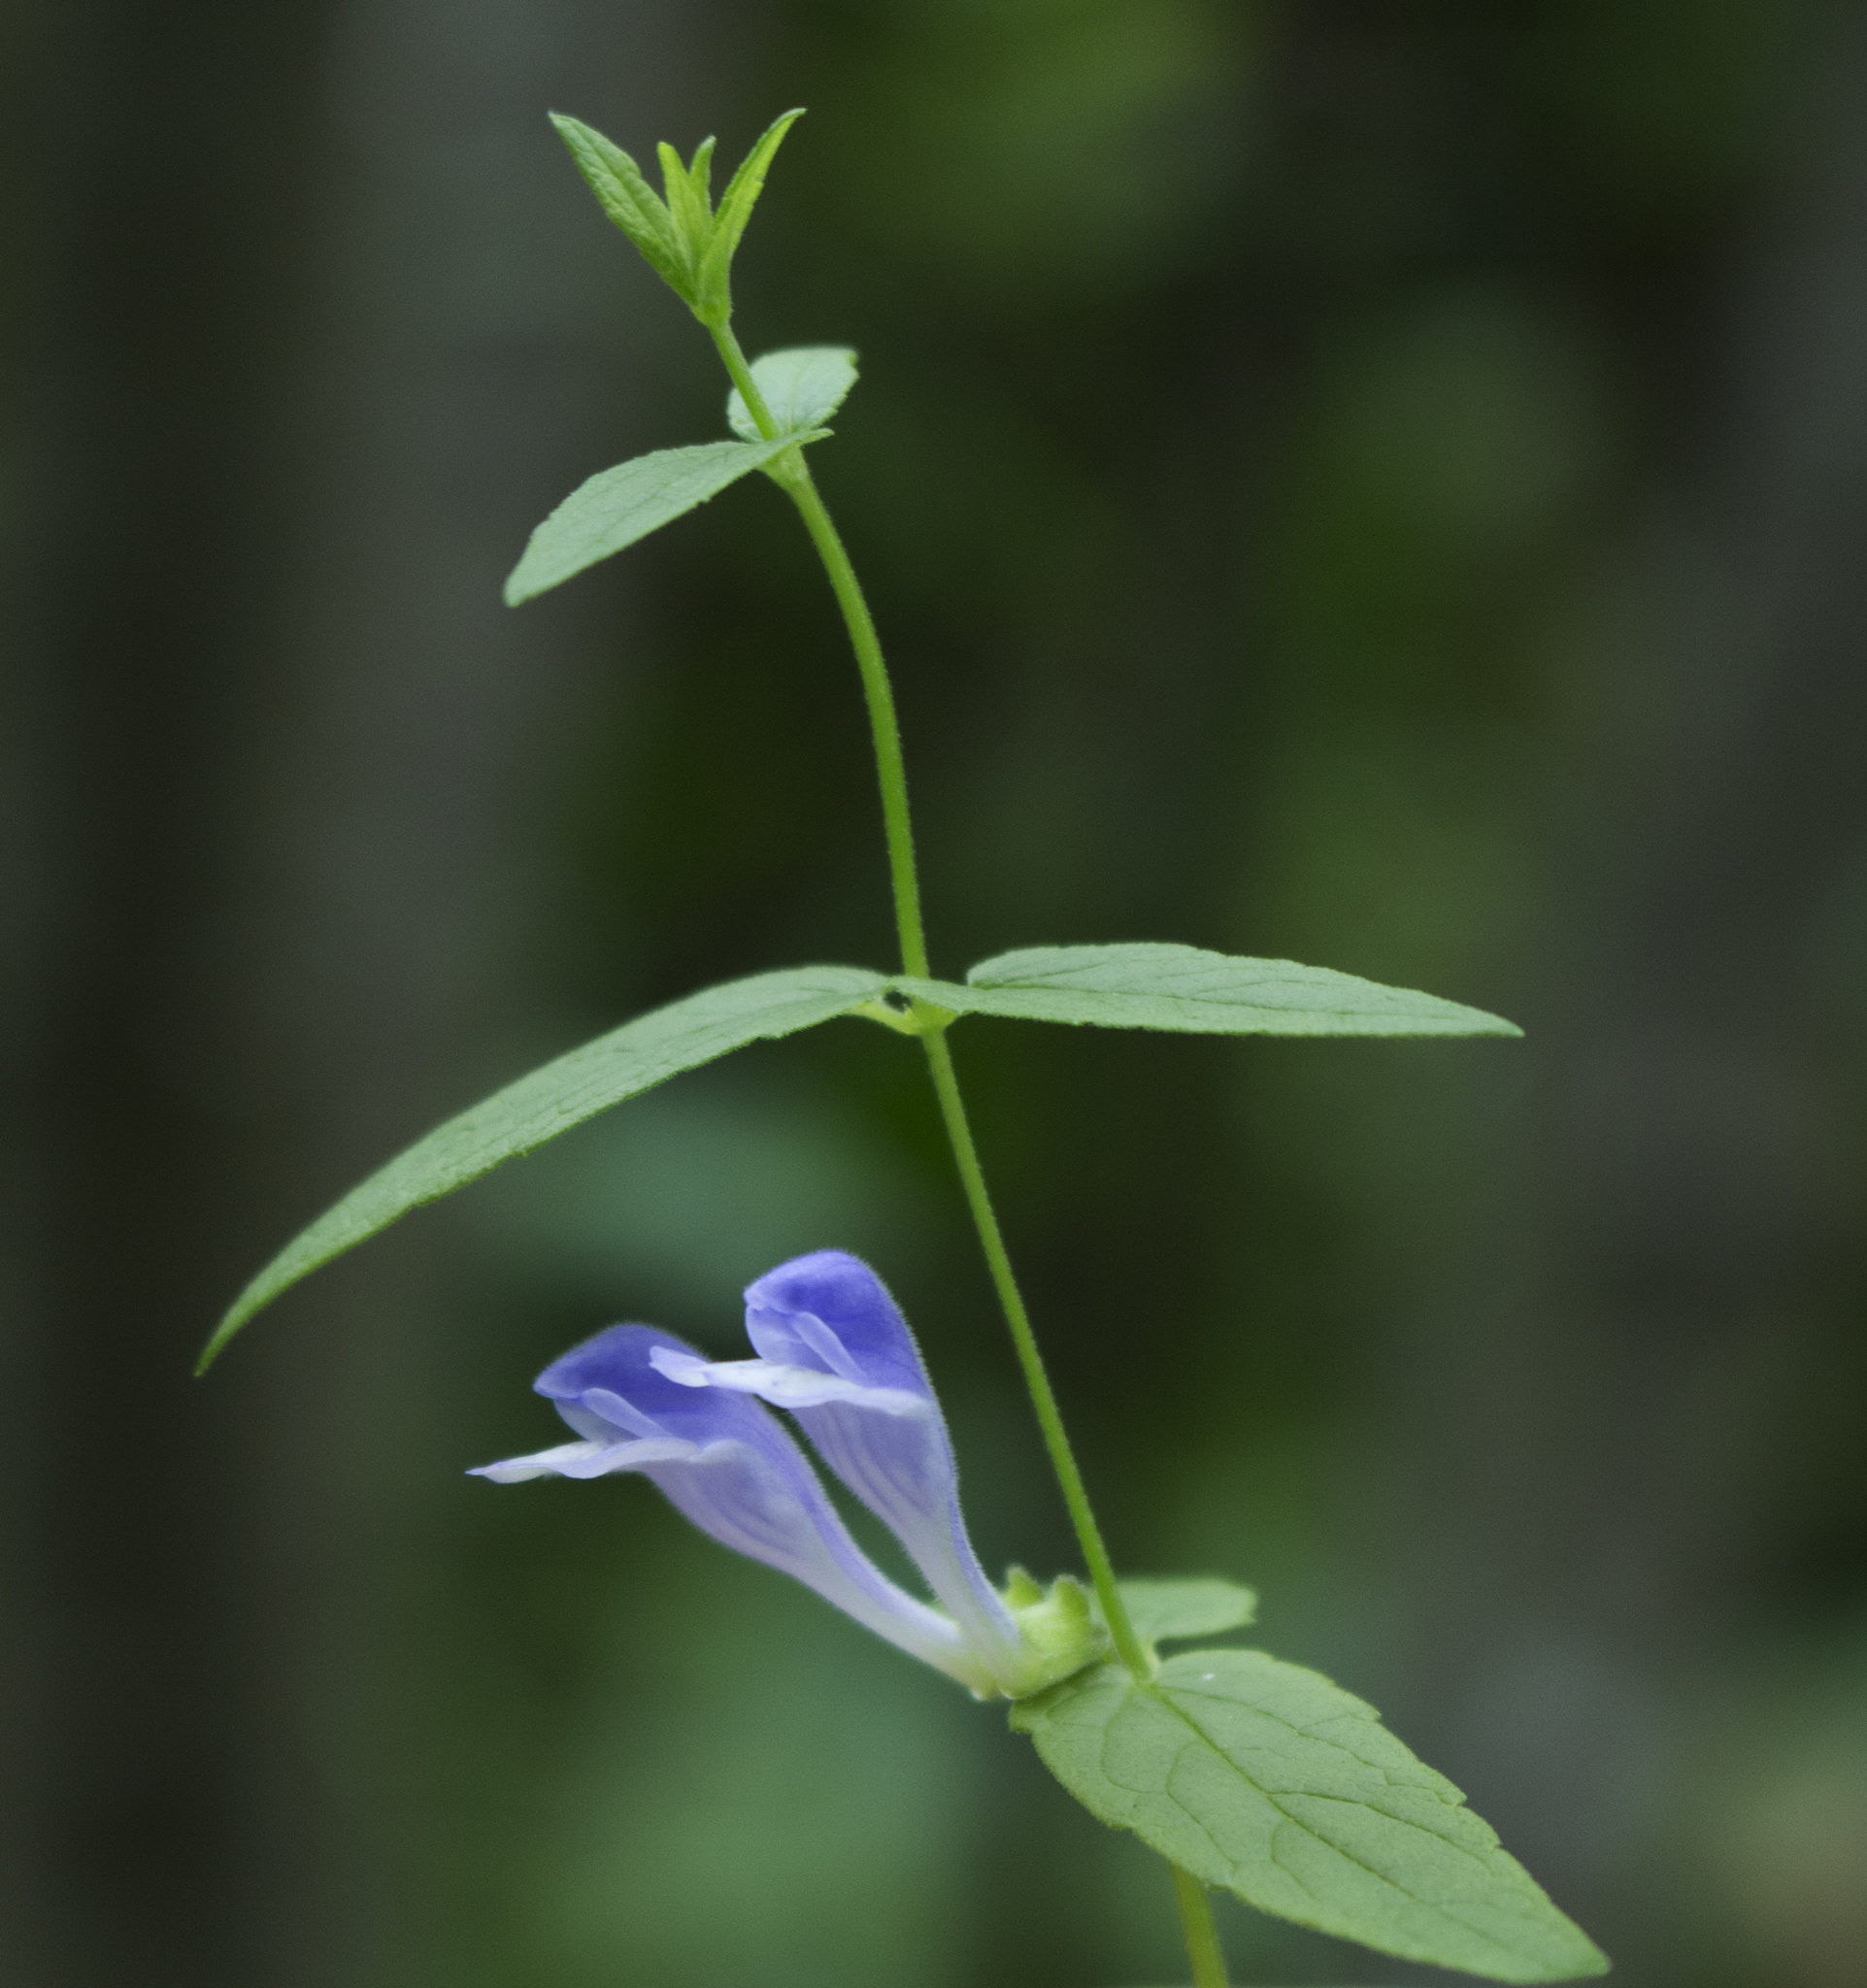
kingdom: Plantae
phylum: Tracheophyta
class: Magnoliopsida
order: Lamiales
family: Lamiaceae
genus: Scutellaria
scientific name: Scutellaria galericulata
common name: Skullcap
